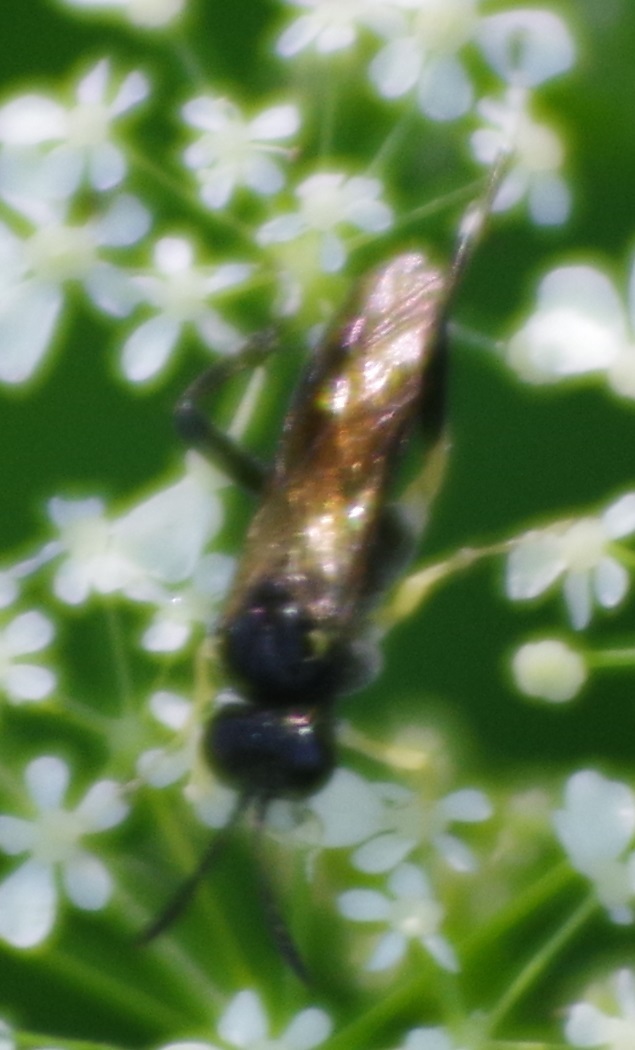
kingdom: Animalia
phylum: Arthropoda
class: Insecta
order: Hymenoptera
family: Tenthredinidae
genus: Macrophya
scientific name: Macrophya montana
